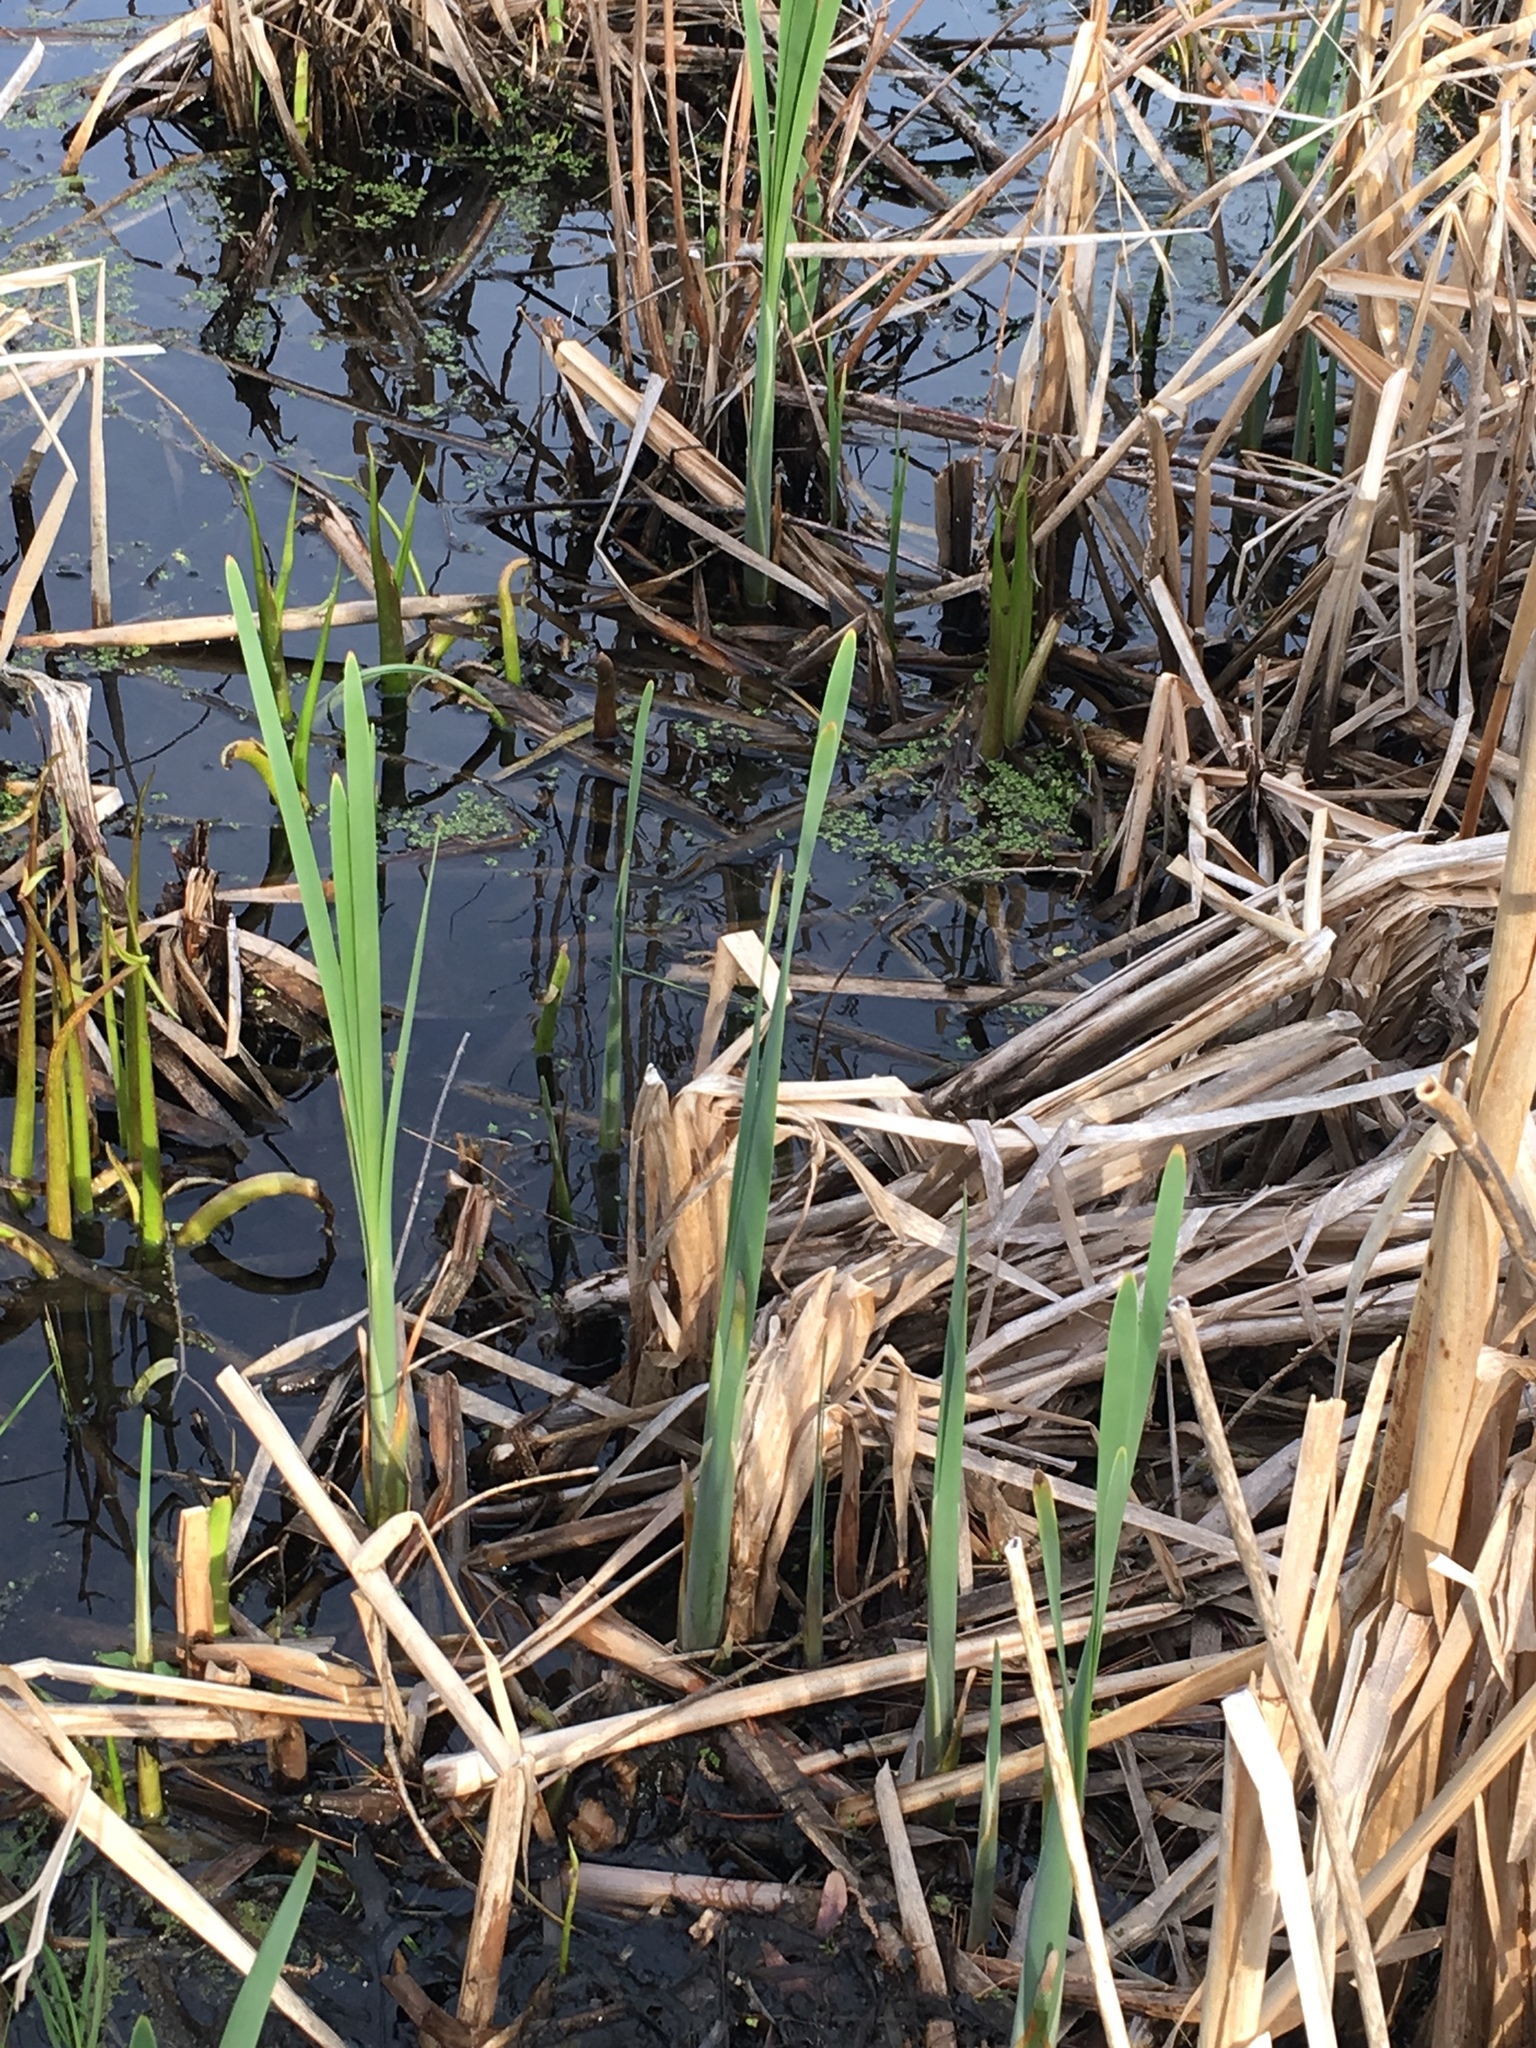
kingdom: Plantae
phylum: Tracheophyta
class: Liliopsida
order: Poales
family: Typhaceae
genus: Typha
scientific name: Typha latifolia
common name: Broadleaf cattail
